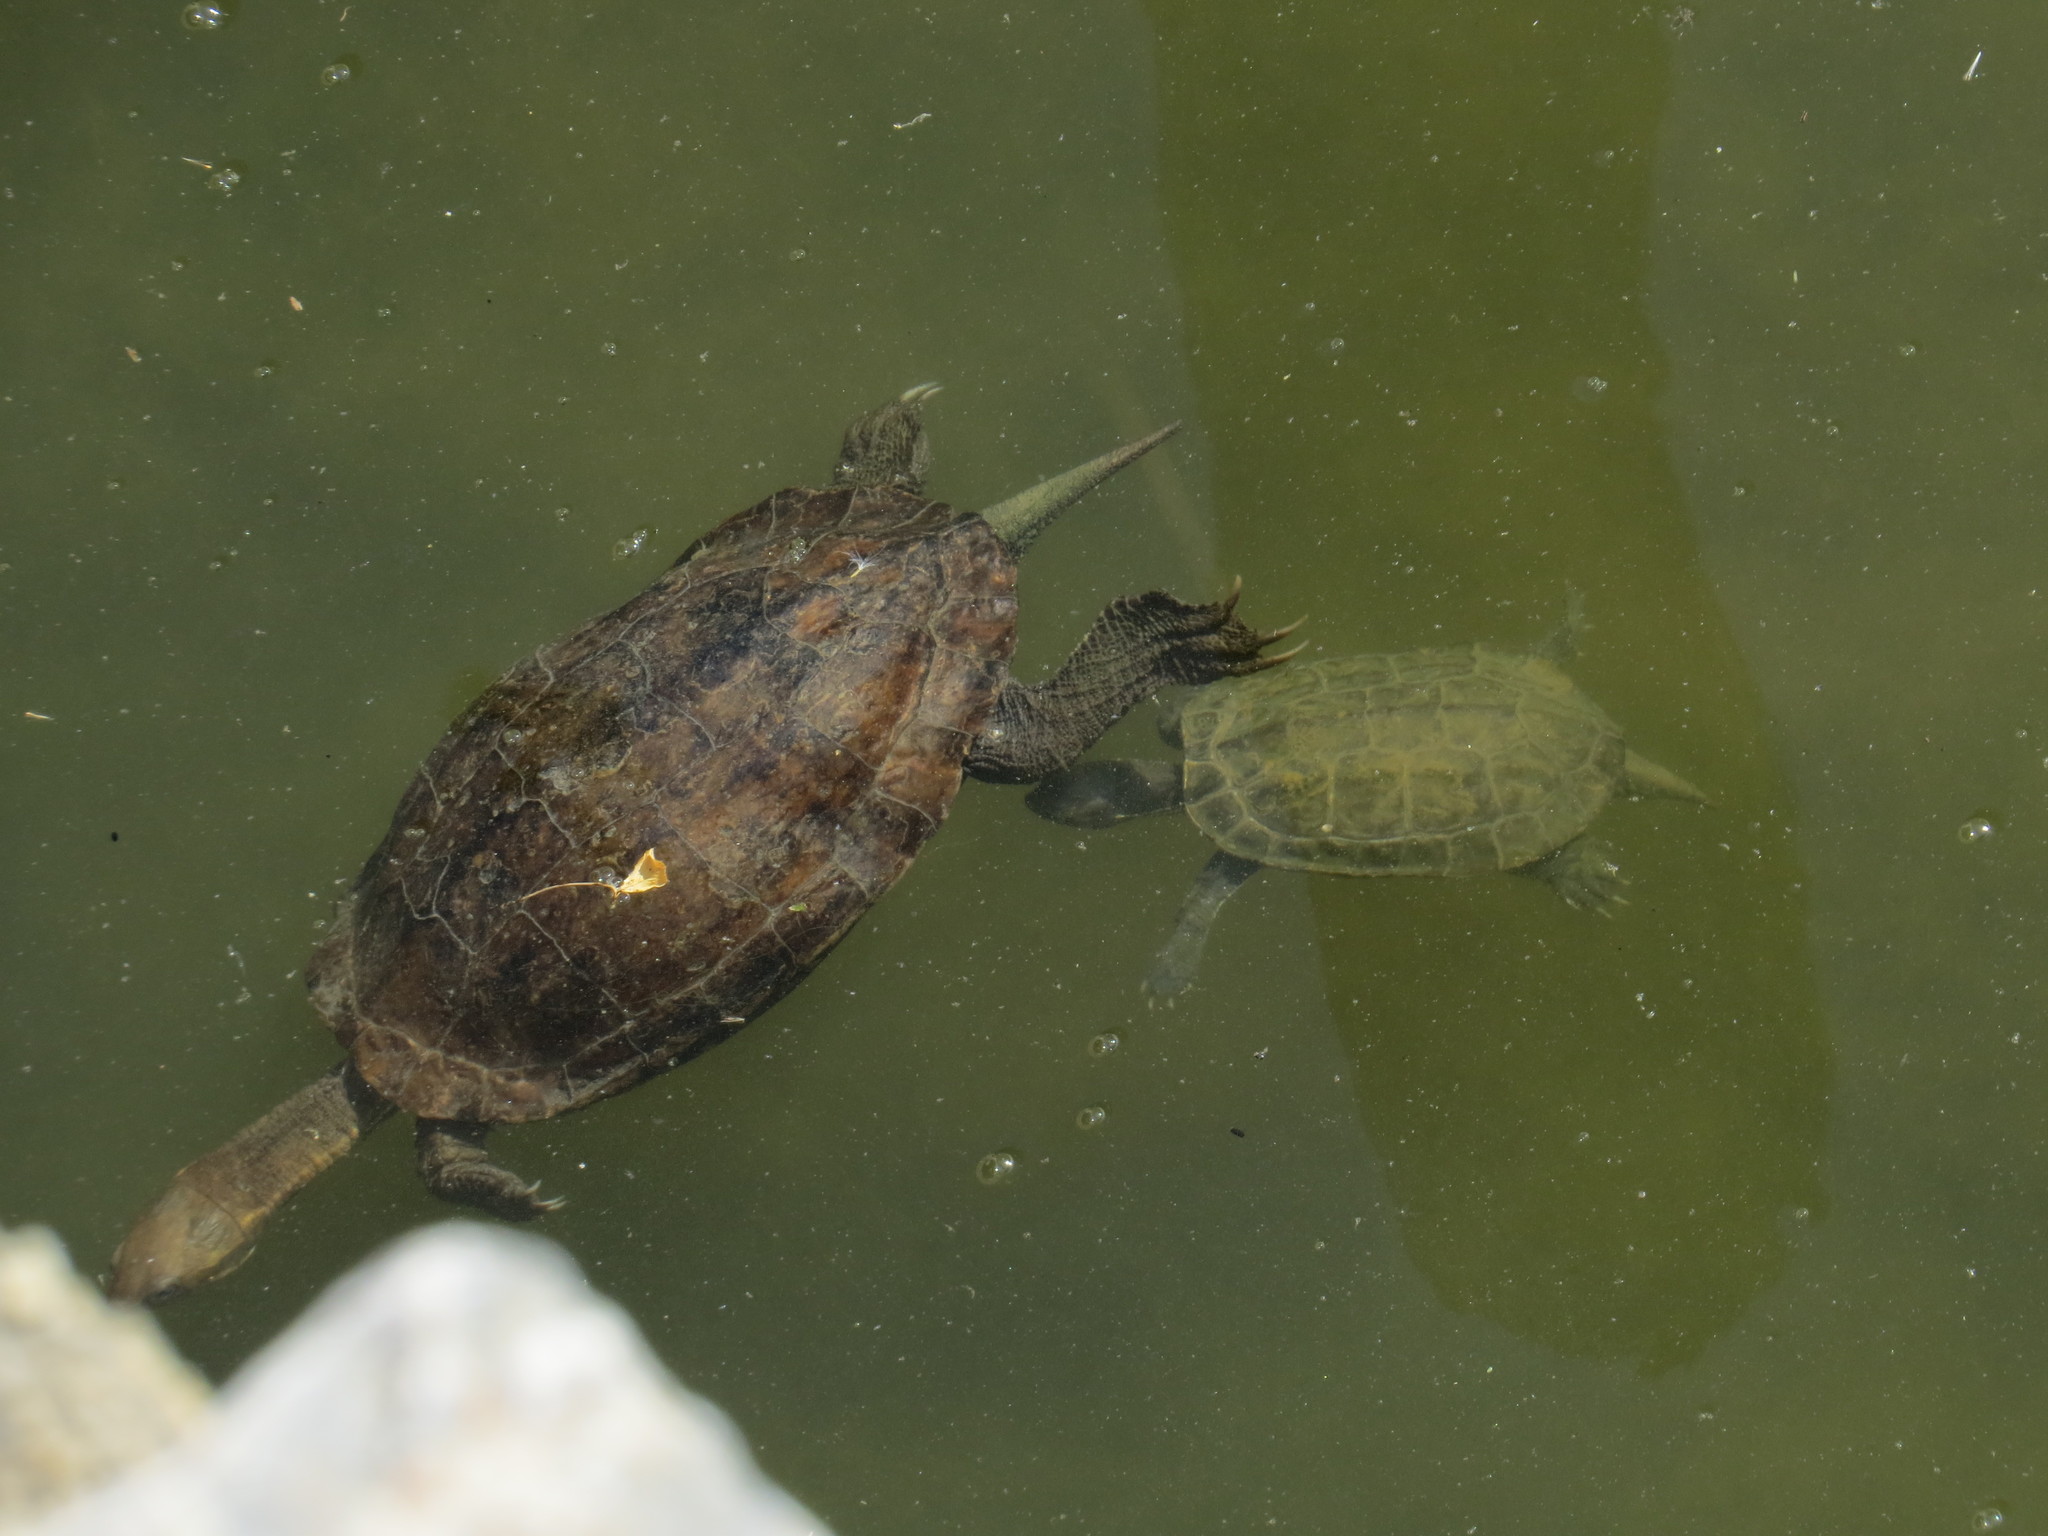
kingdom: Animalia
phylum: Chordata
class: Testudines
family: Geoemydidae
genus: Mauremys
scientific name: Mauremys rivulata
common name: Western caspian turtle
